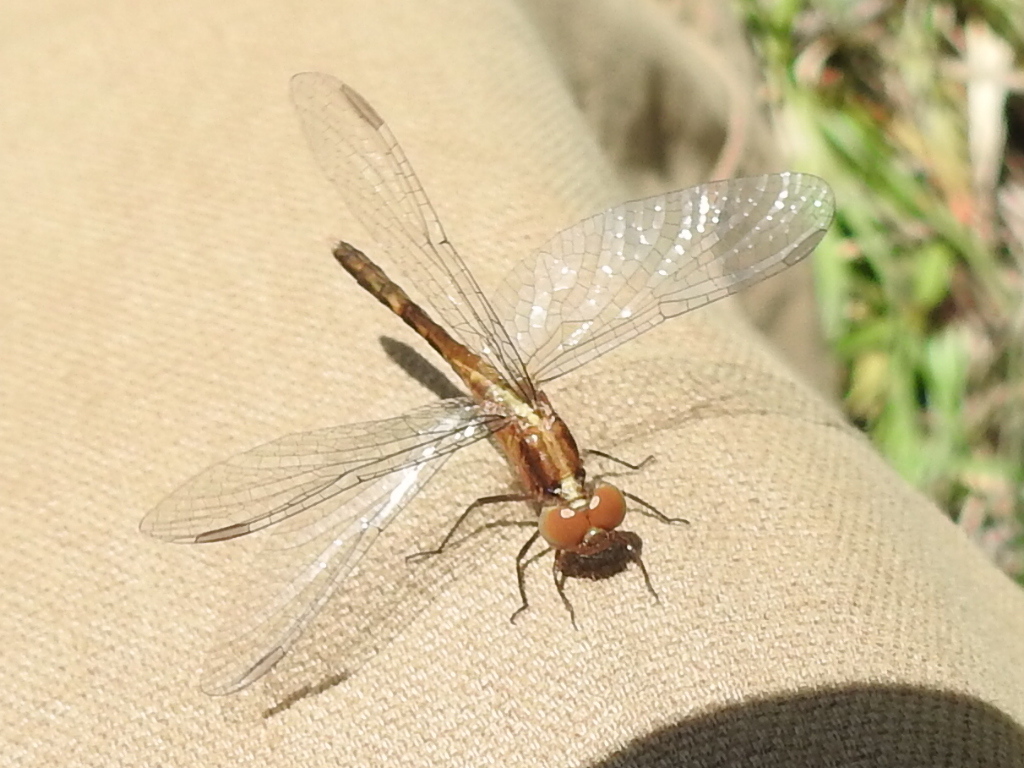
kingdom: Animalia
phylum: Arthropoda
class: Insecta
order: Odonata
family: Libellulidae
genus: Erythrodiplax
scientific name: Erythrodiplax minuscula
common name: Little blue dragonlet
